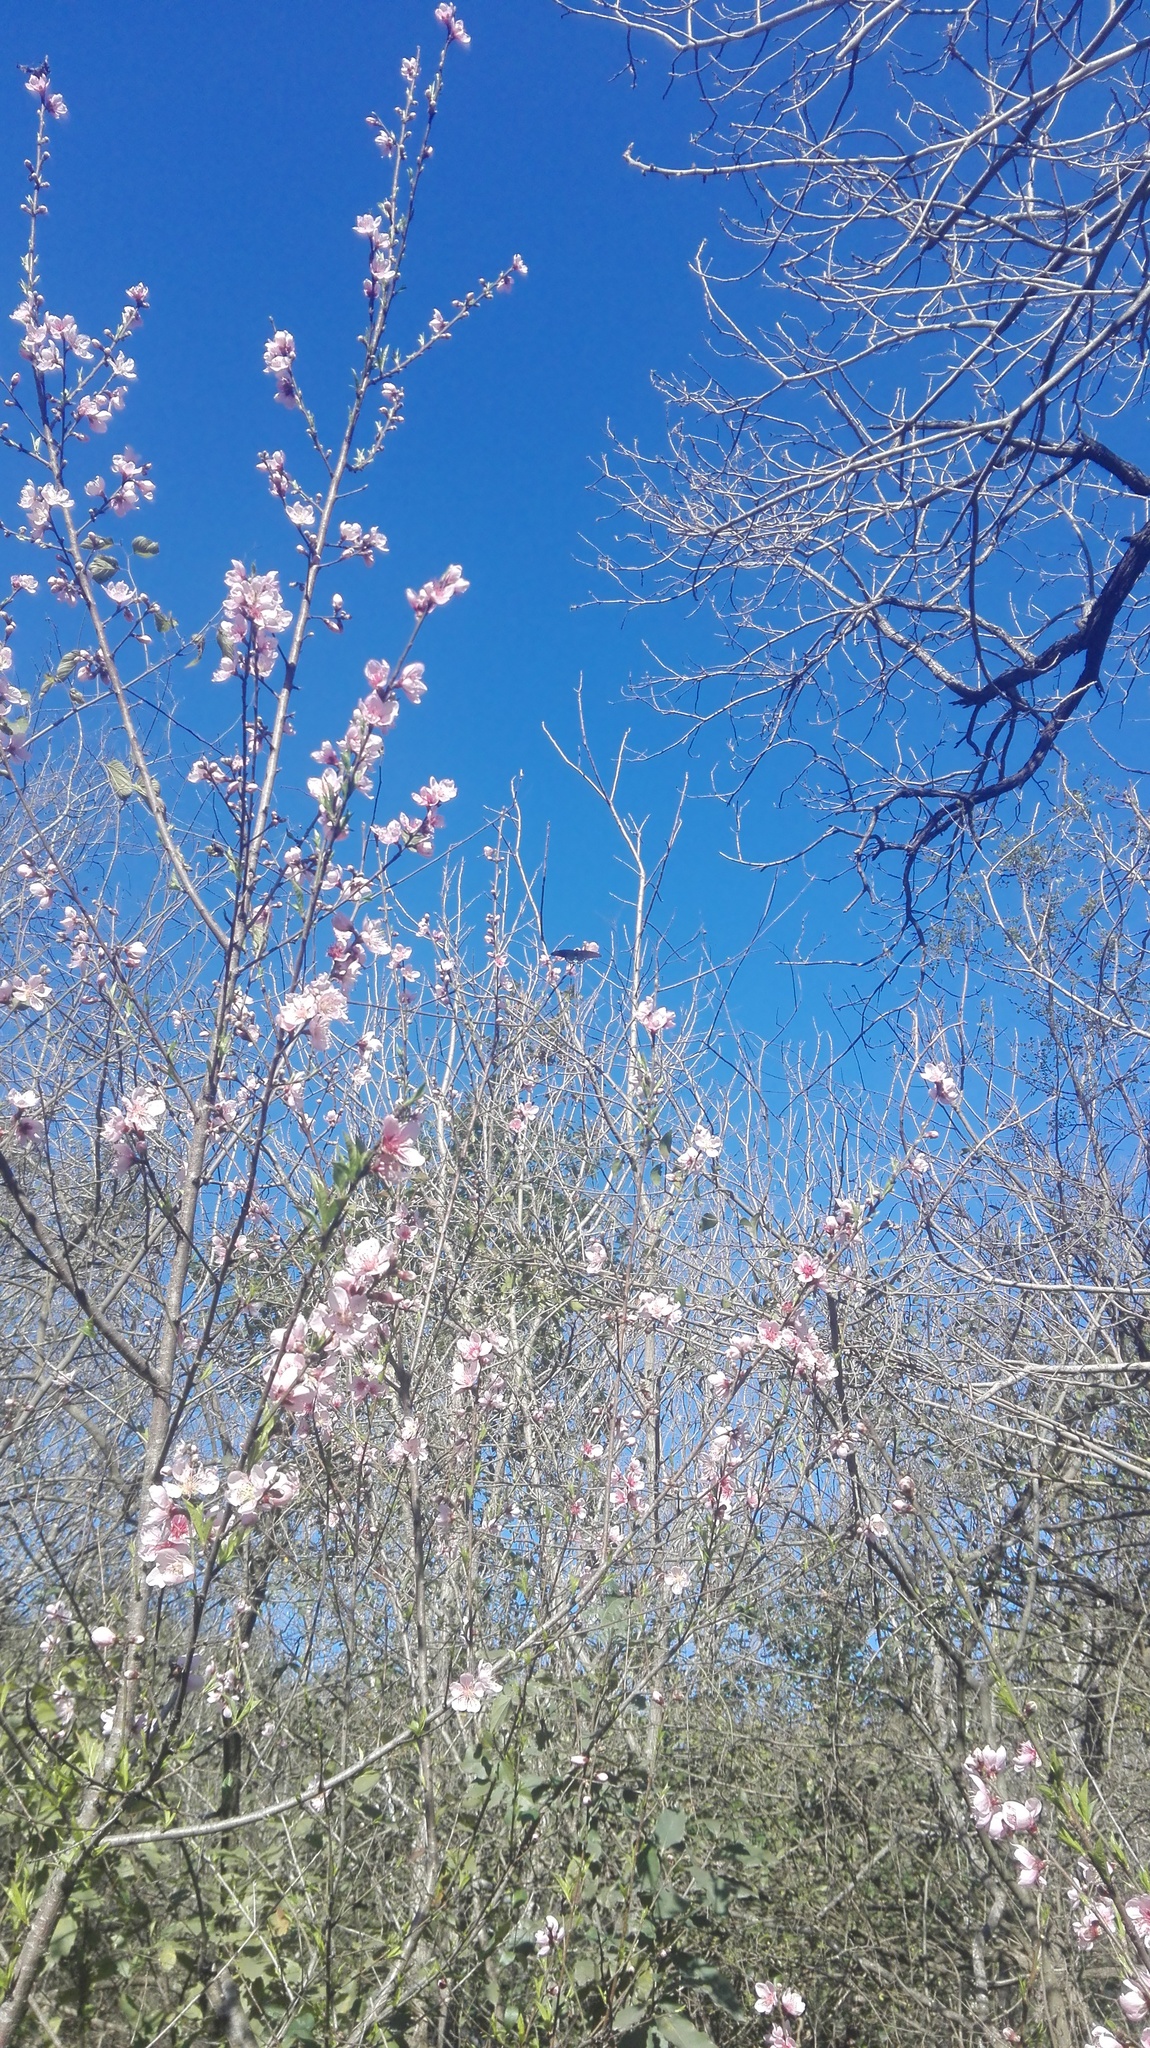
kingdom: Animalia
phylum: Arthropoda
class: Insecta
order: Lepidoptera
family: Papilionidae
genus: Battus
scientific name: Battus philenor
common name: Pipevine swallowtail
